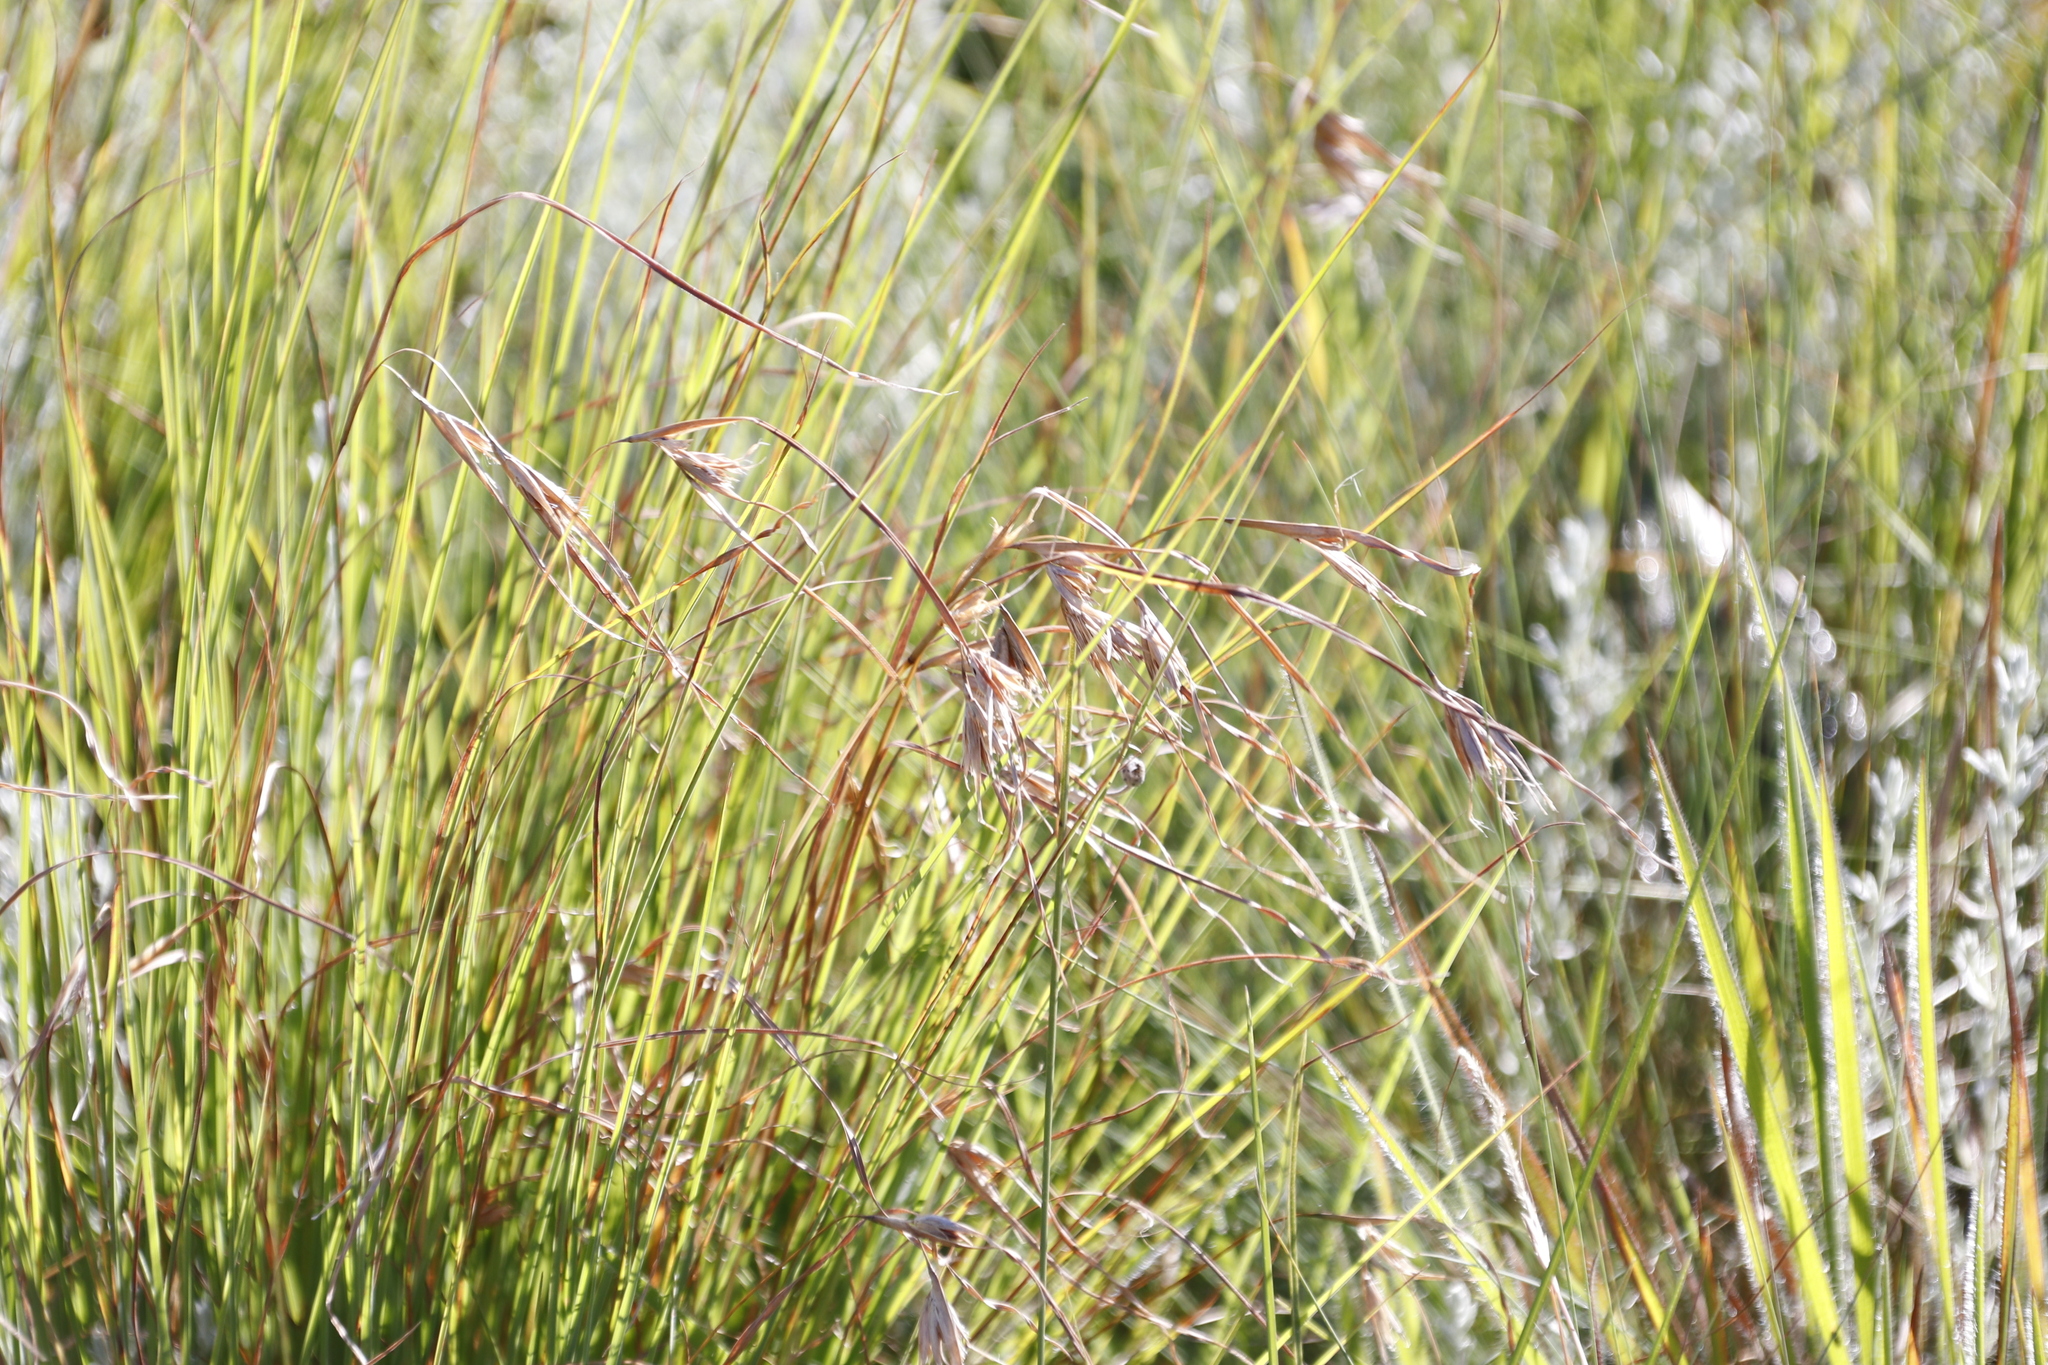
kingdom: Plantae
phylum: Tracheophyta
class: Liliopsida
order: Poales
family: Poaceae
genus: Themeda
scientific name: Themeda triandra
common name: Kangaroo grass
